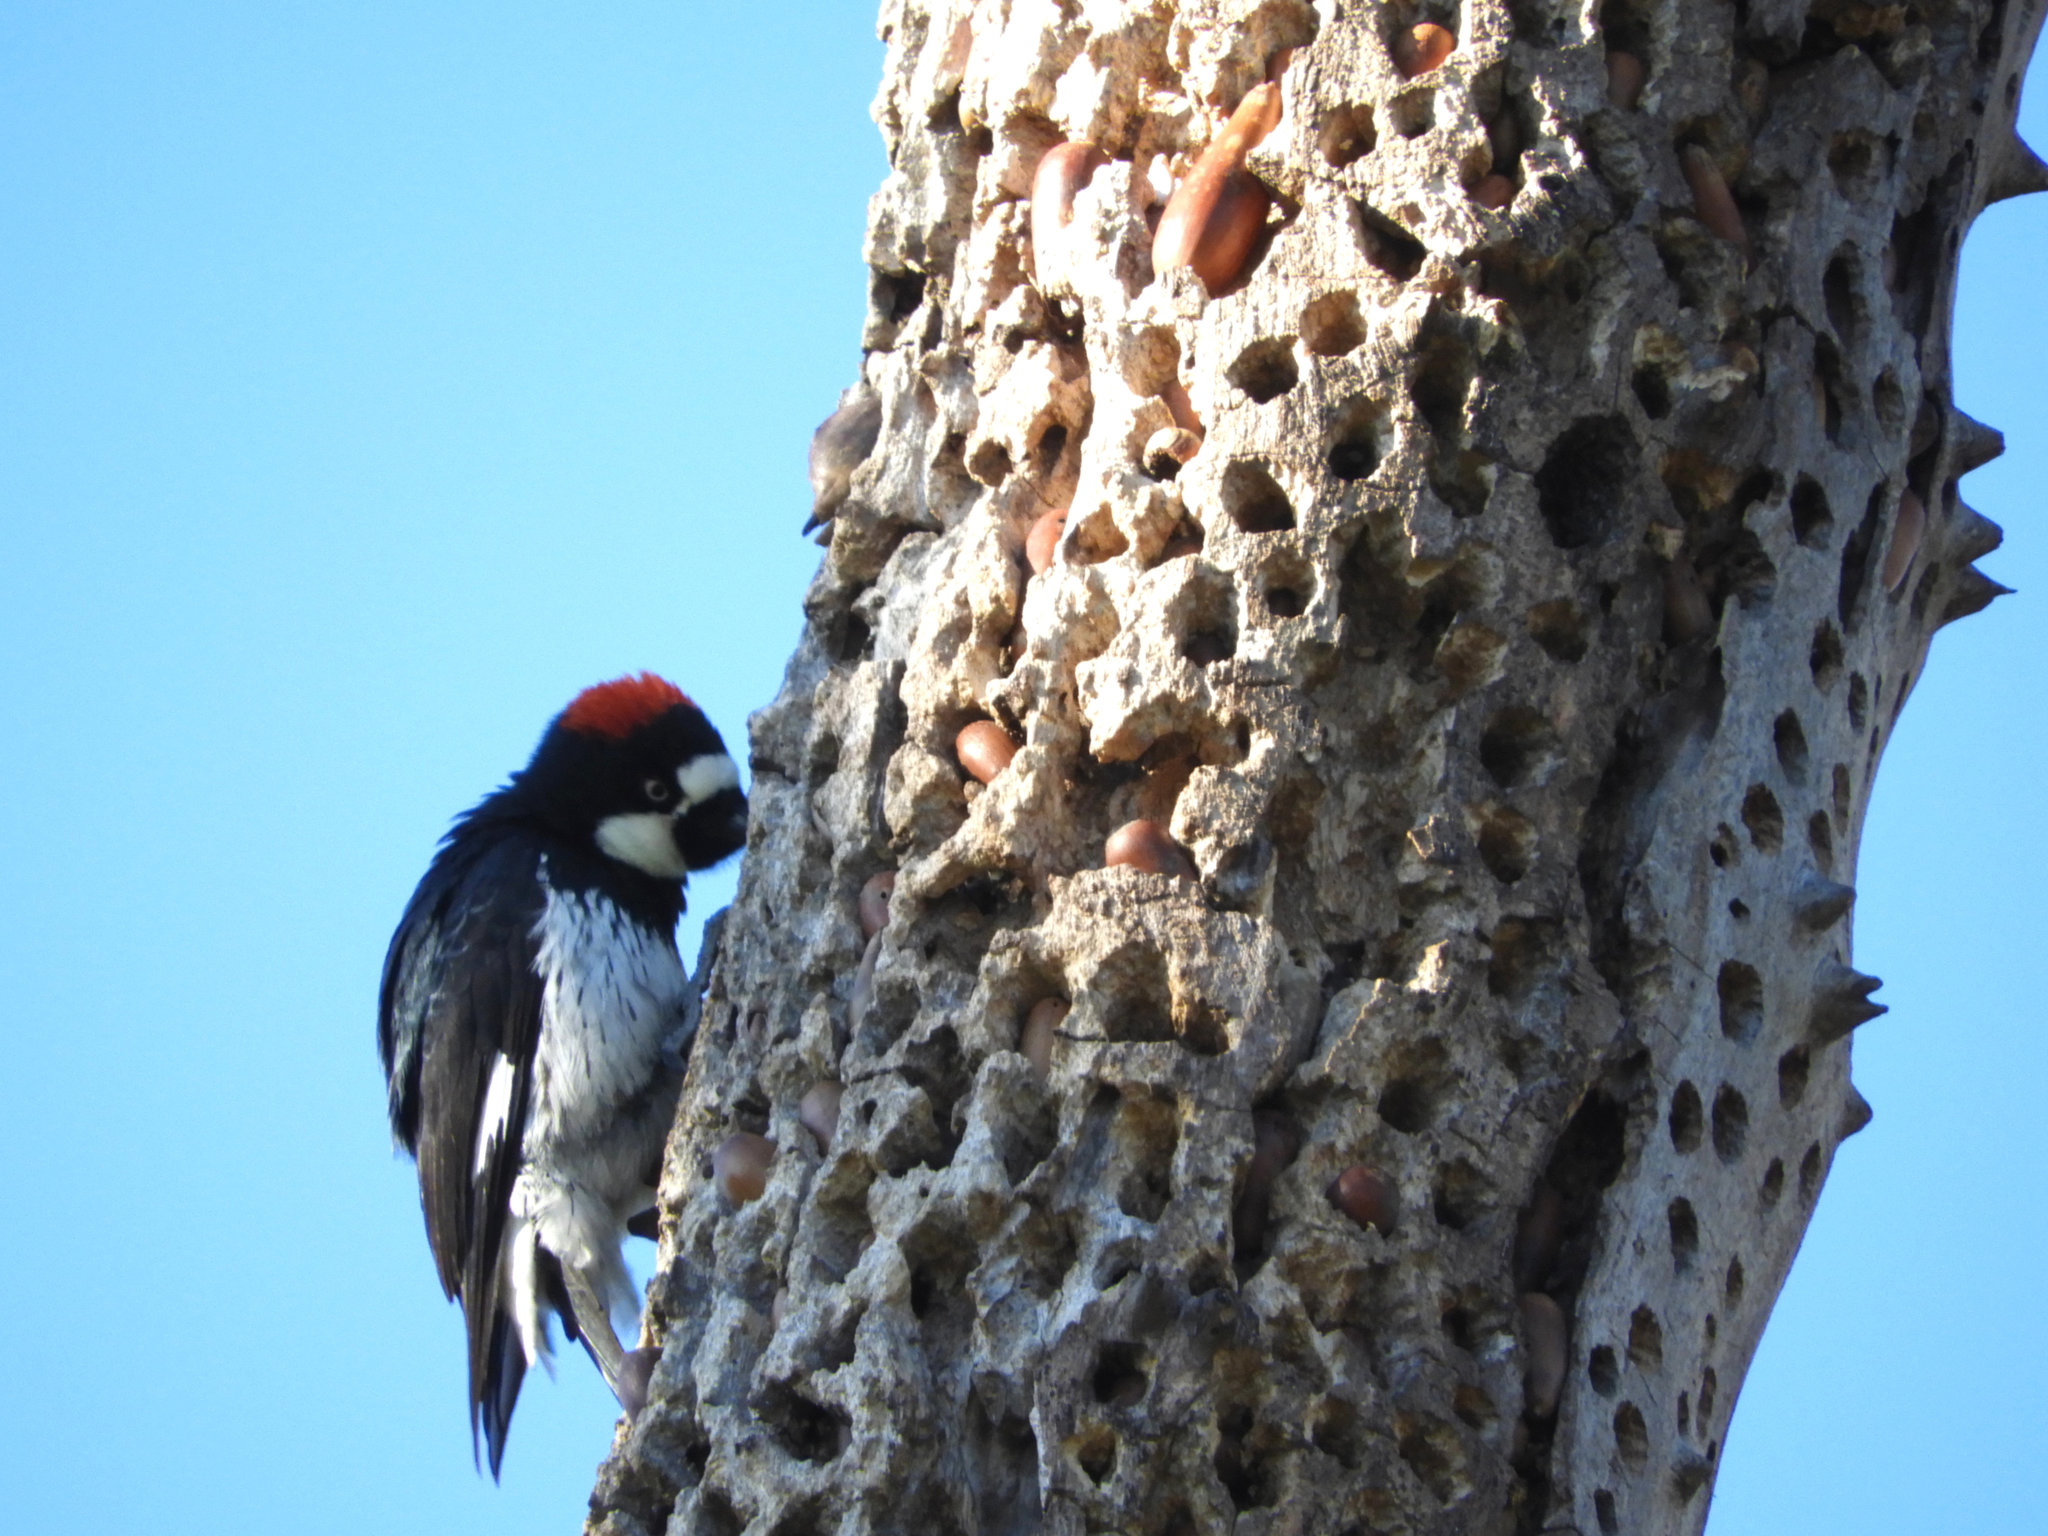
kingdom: Animalia
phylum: Chordata
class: Aves
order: Piciformes
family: Picidae
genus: Melanerpes
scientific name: Melanerpes formicivorus
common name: Acorn woodpecker
